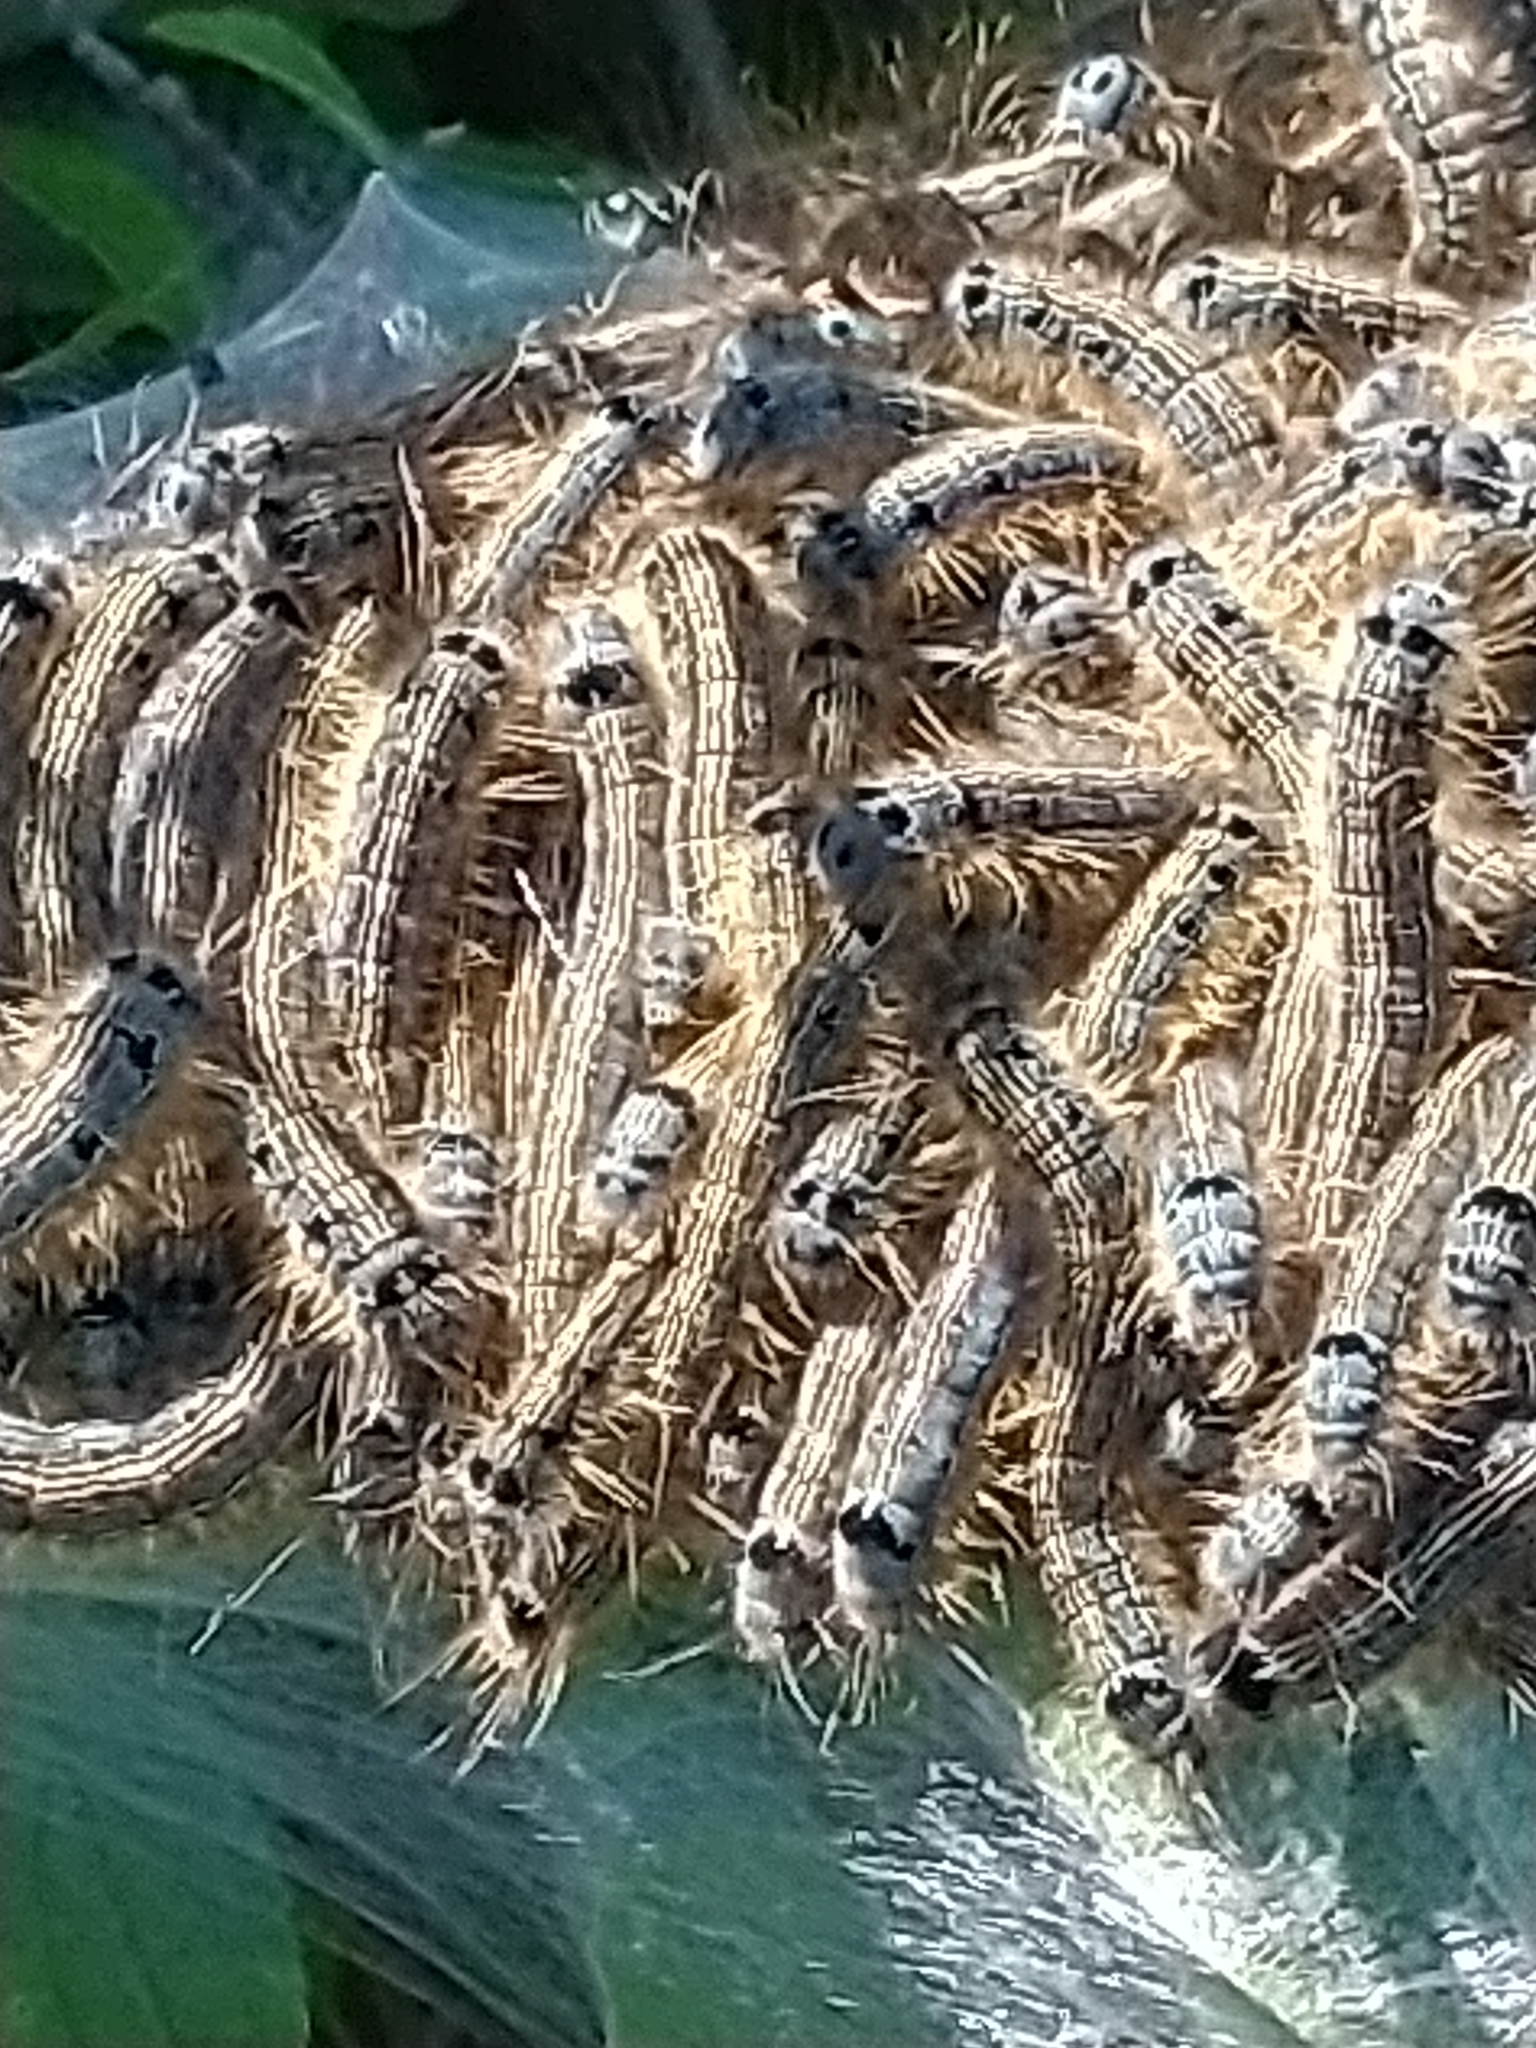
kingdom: Animalia
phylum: Arthropoda
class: Insecta
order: Lepidoptera
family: Lasiocampidae
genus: Malacosoma
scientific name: Malacosoma neustria
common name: The lackey
